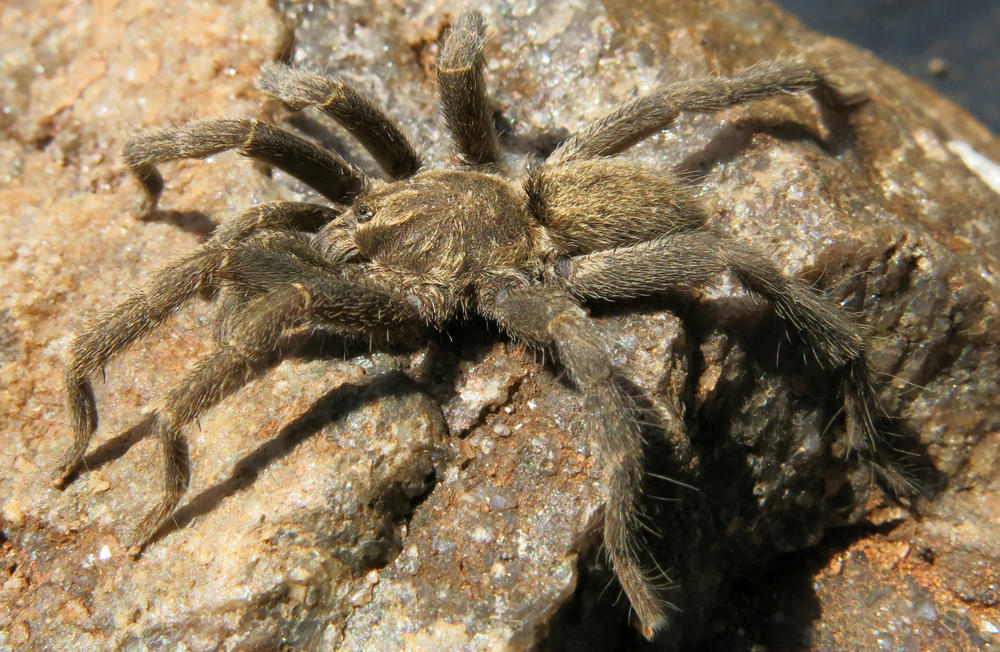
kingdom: Animalia
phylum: Arthropoda
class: Arachnida
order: Araneae
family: Theraphosidae
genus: Harpactirella
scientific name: Harpactirella overdijki
